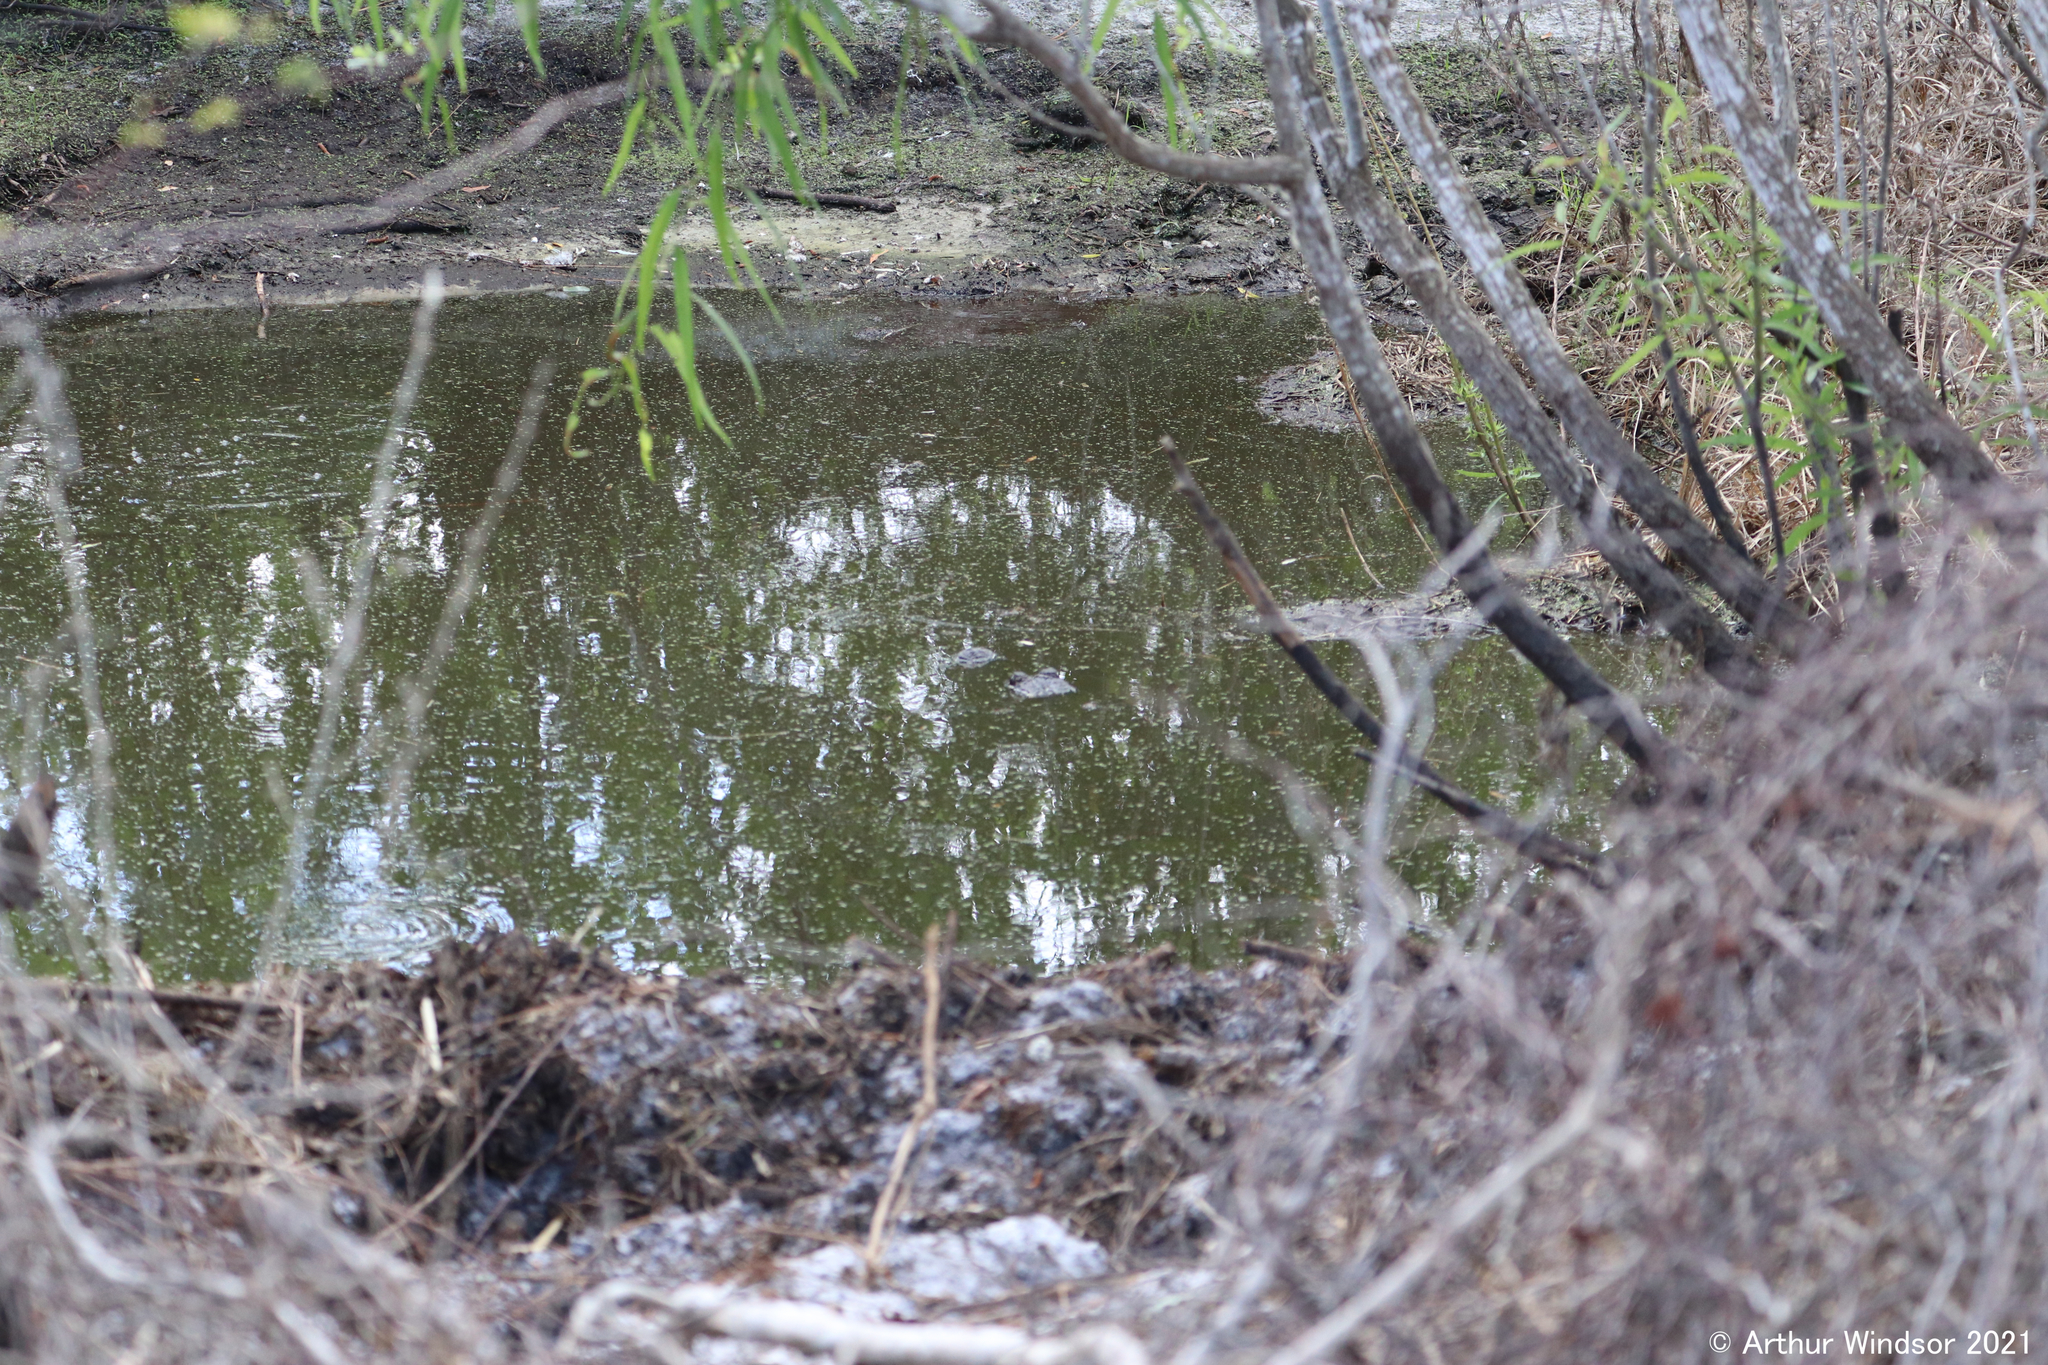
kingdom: Animalia
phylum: Chordata
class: Crocodylia
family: Alligatoridae
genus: Alligator
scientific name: Alligator mississippiensis
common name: American alligator
